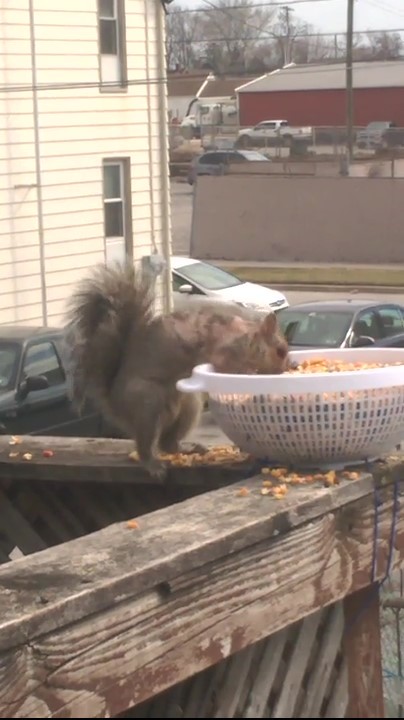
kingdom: Animalia
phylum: Chordata
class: Mammalia
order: Rodentia
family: Sciuridae
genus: Sciurus
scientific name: Sciurus carolinensis
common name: Eastern gray squirrel
